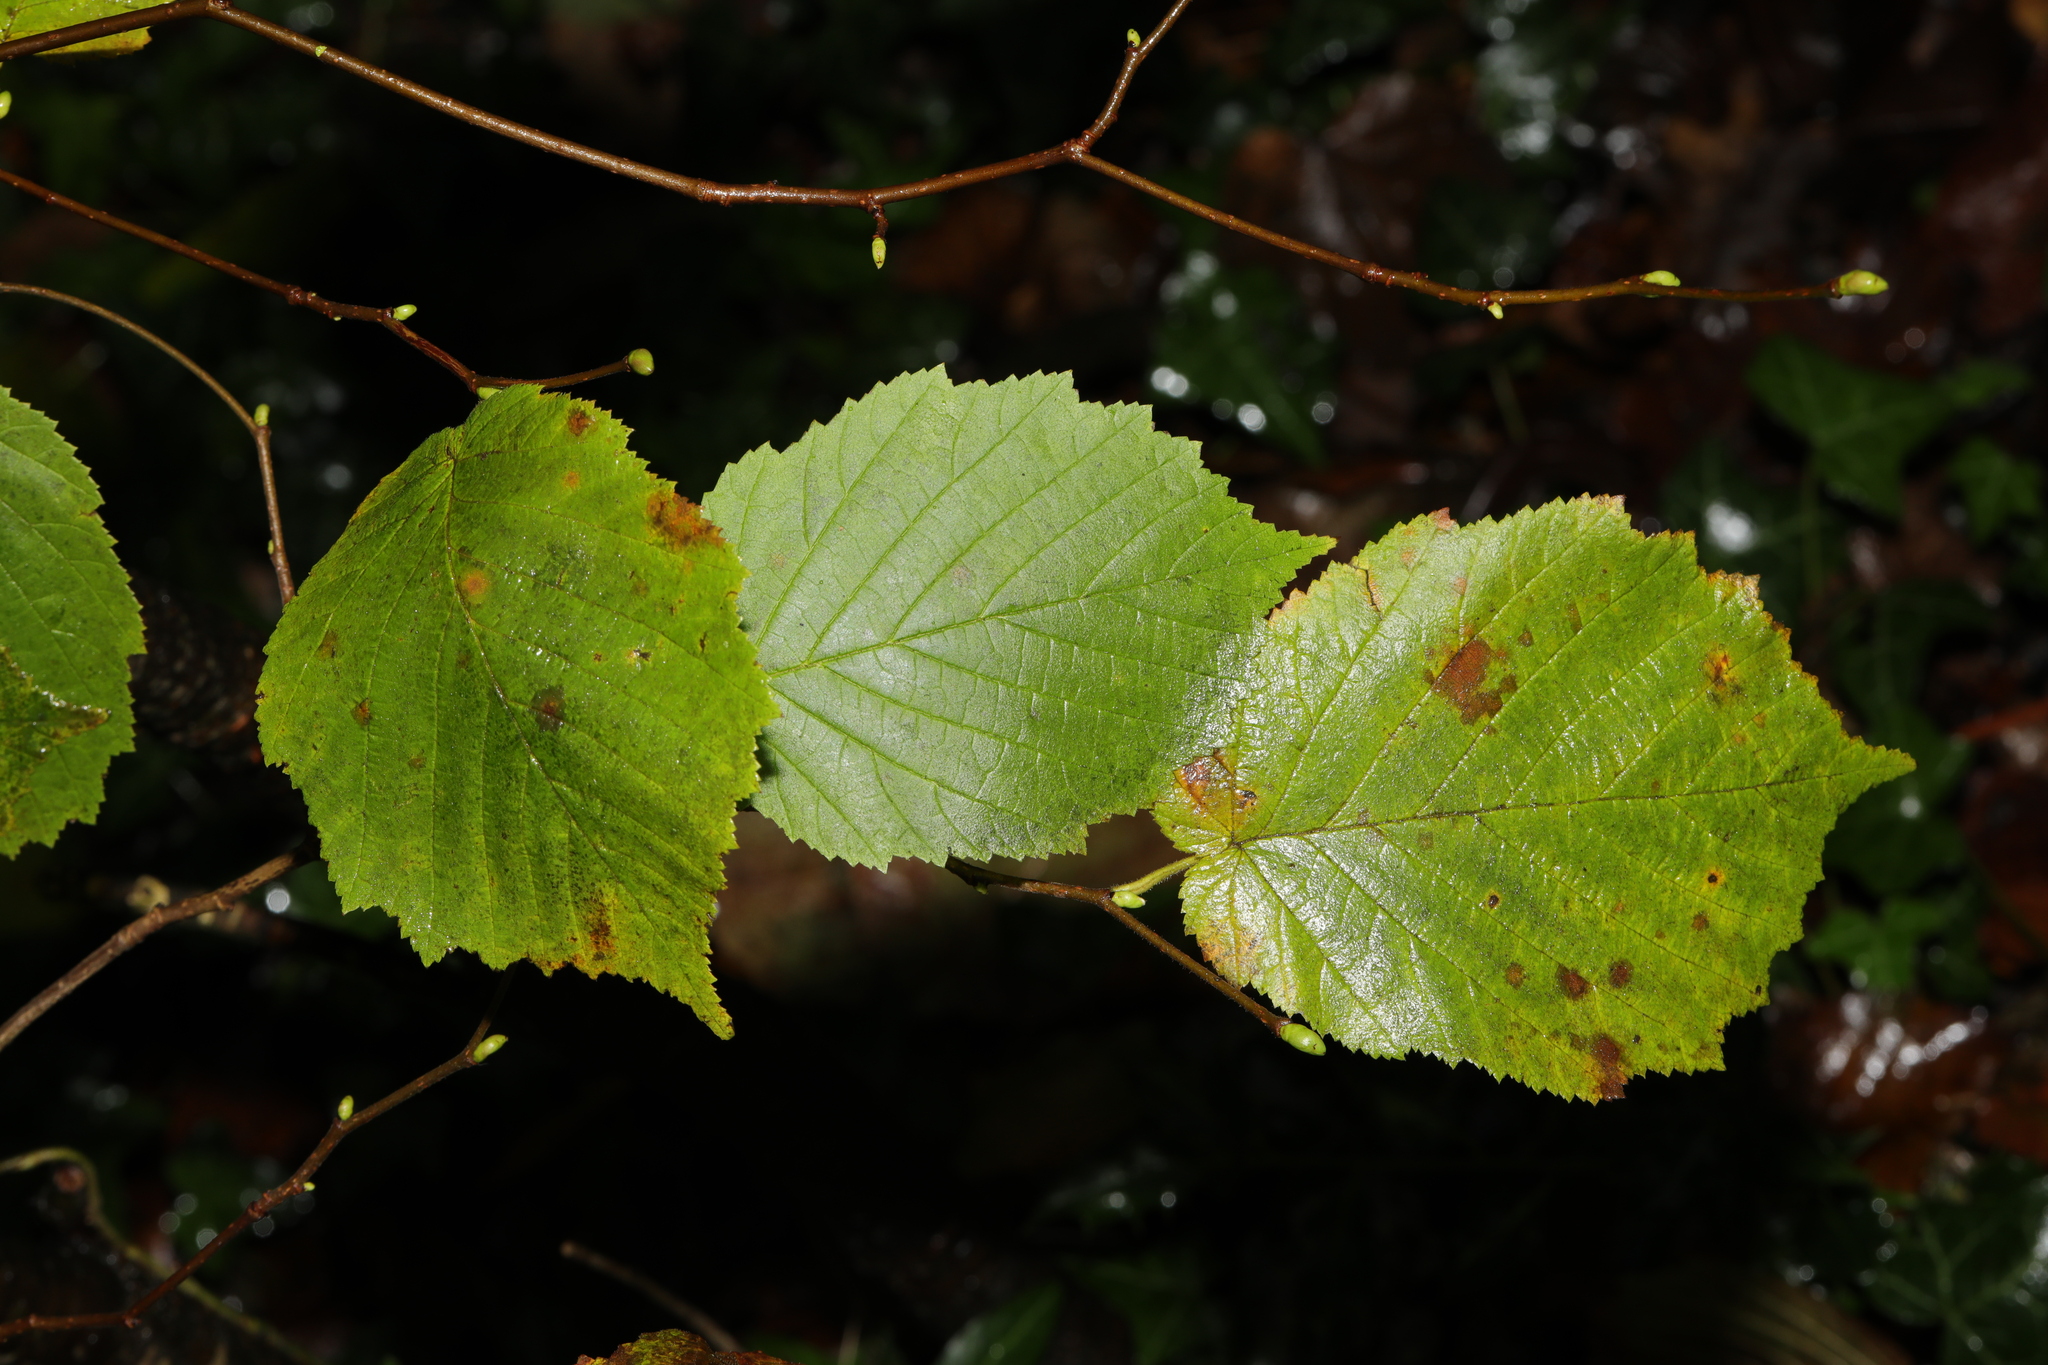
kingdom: Plantae
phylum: Tracheophyta
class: Magnoliopsida
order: Fagales
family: Betulaceae
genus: Corylus
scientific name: Corylus avellana
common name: European hazel
